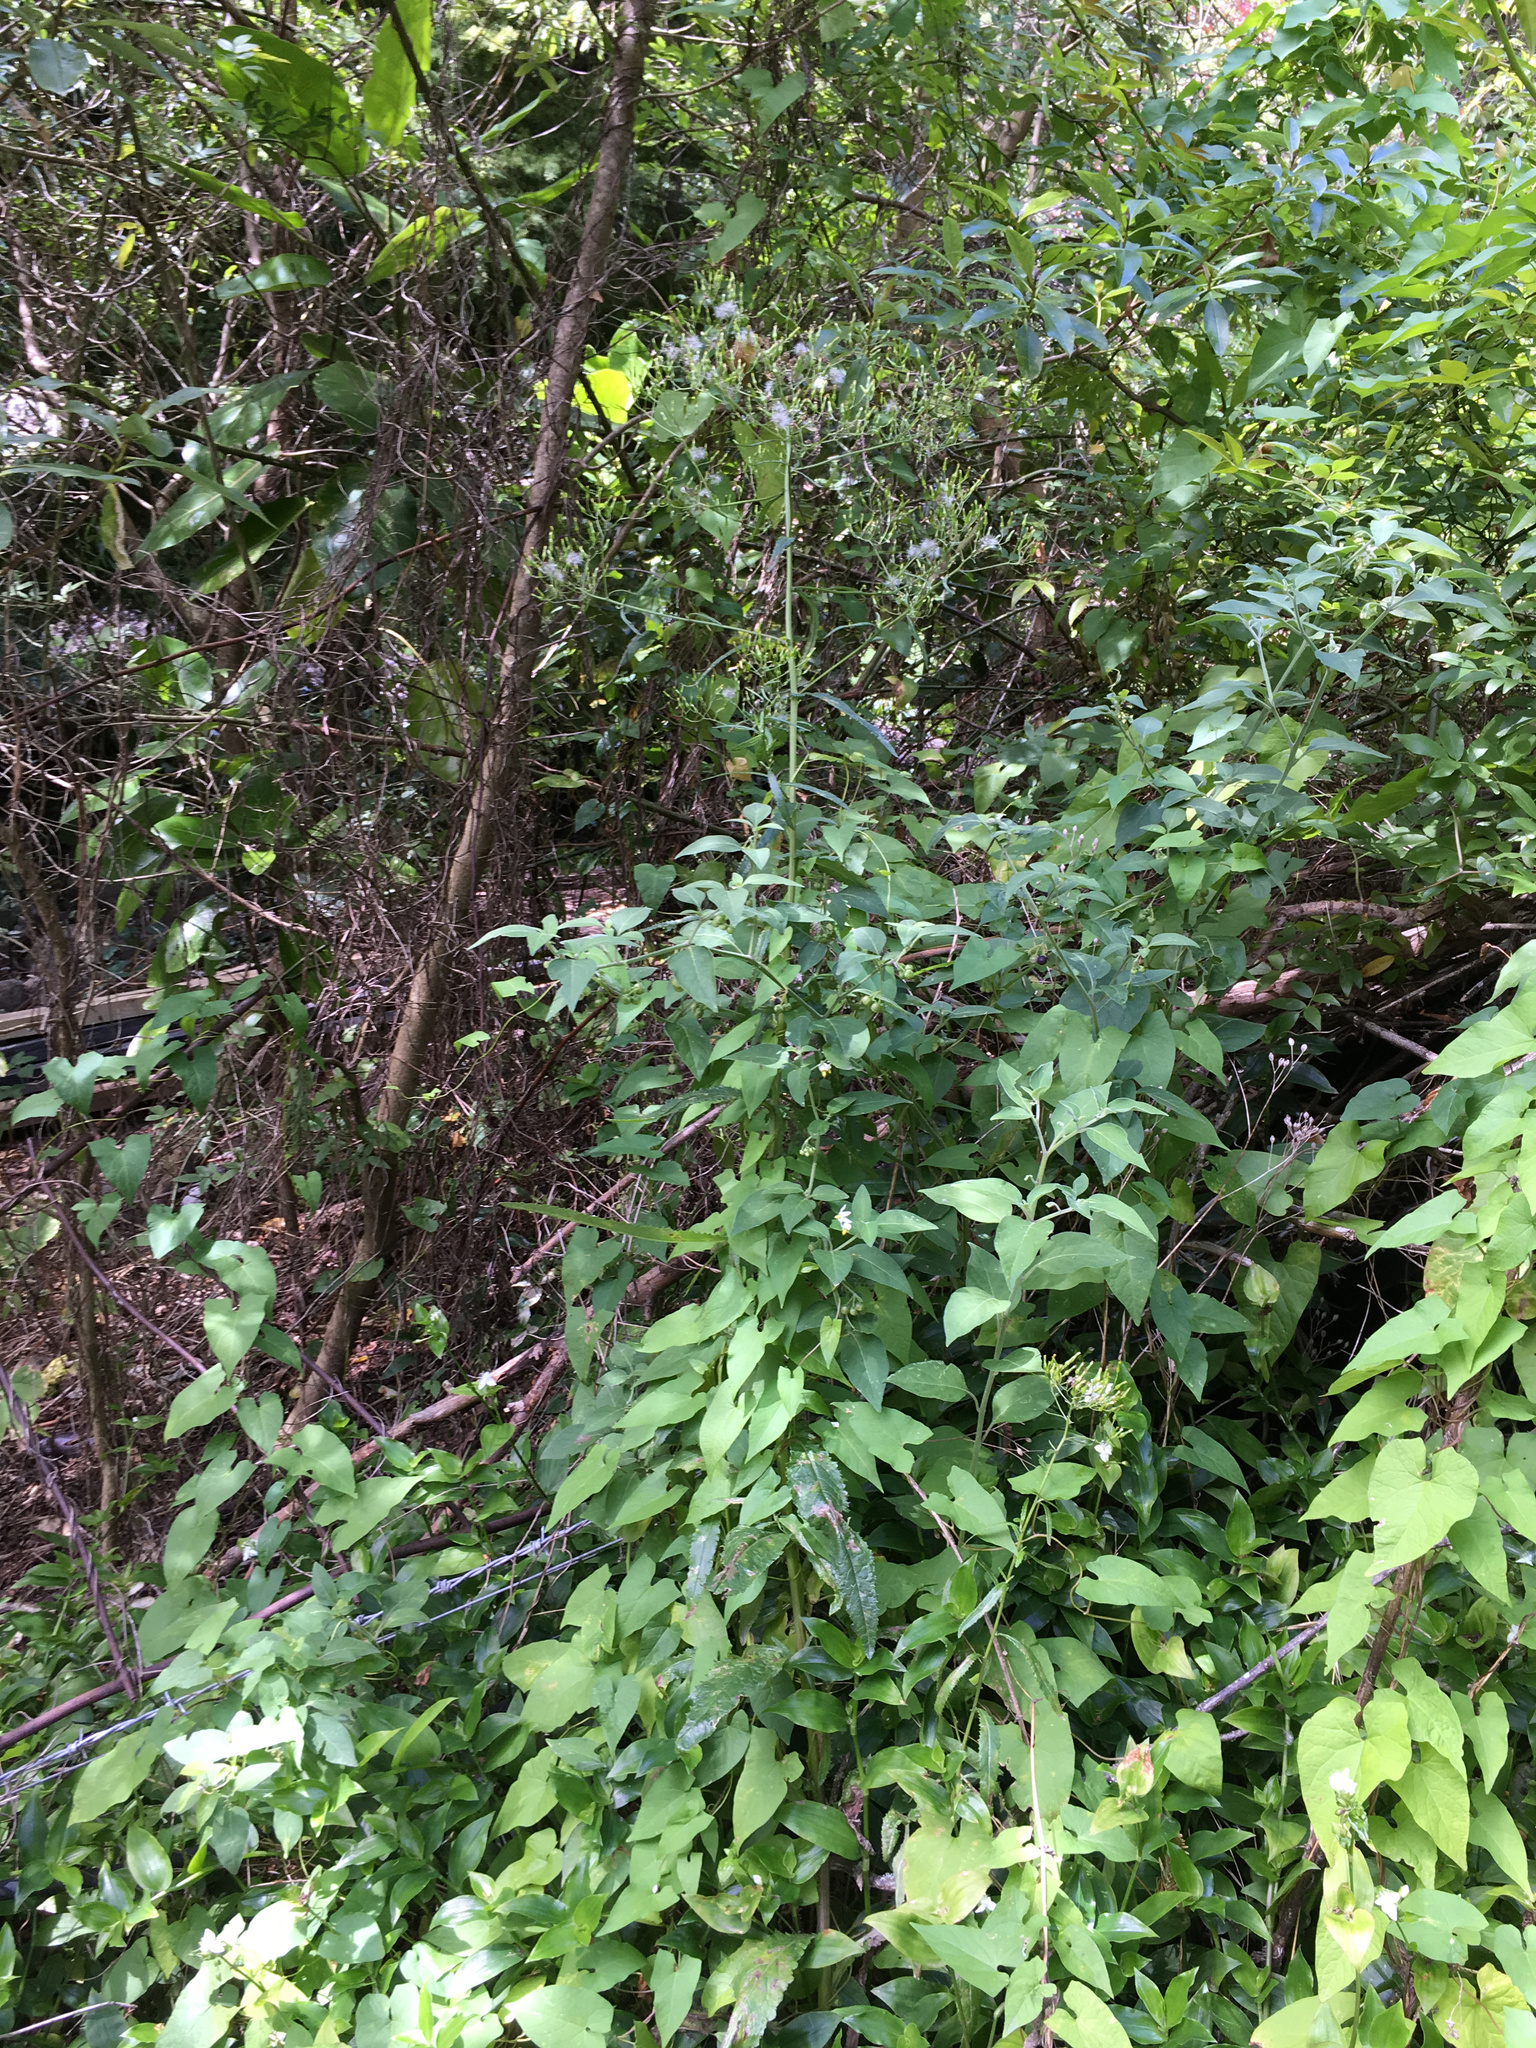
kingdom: Plantae
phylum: Tracheophyta
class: Magnoliopsida
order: Asterales
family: Asteraceae
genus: Senecio
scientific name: Senecio minimus
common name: Toothed fireweed
